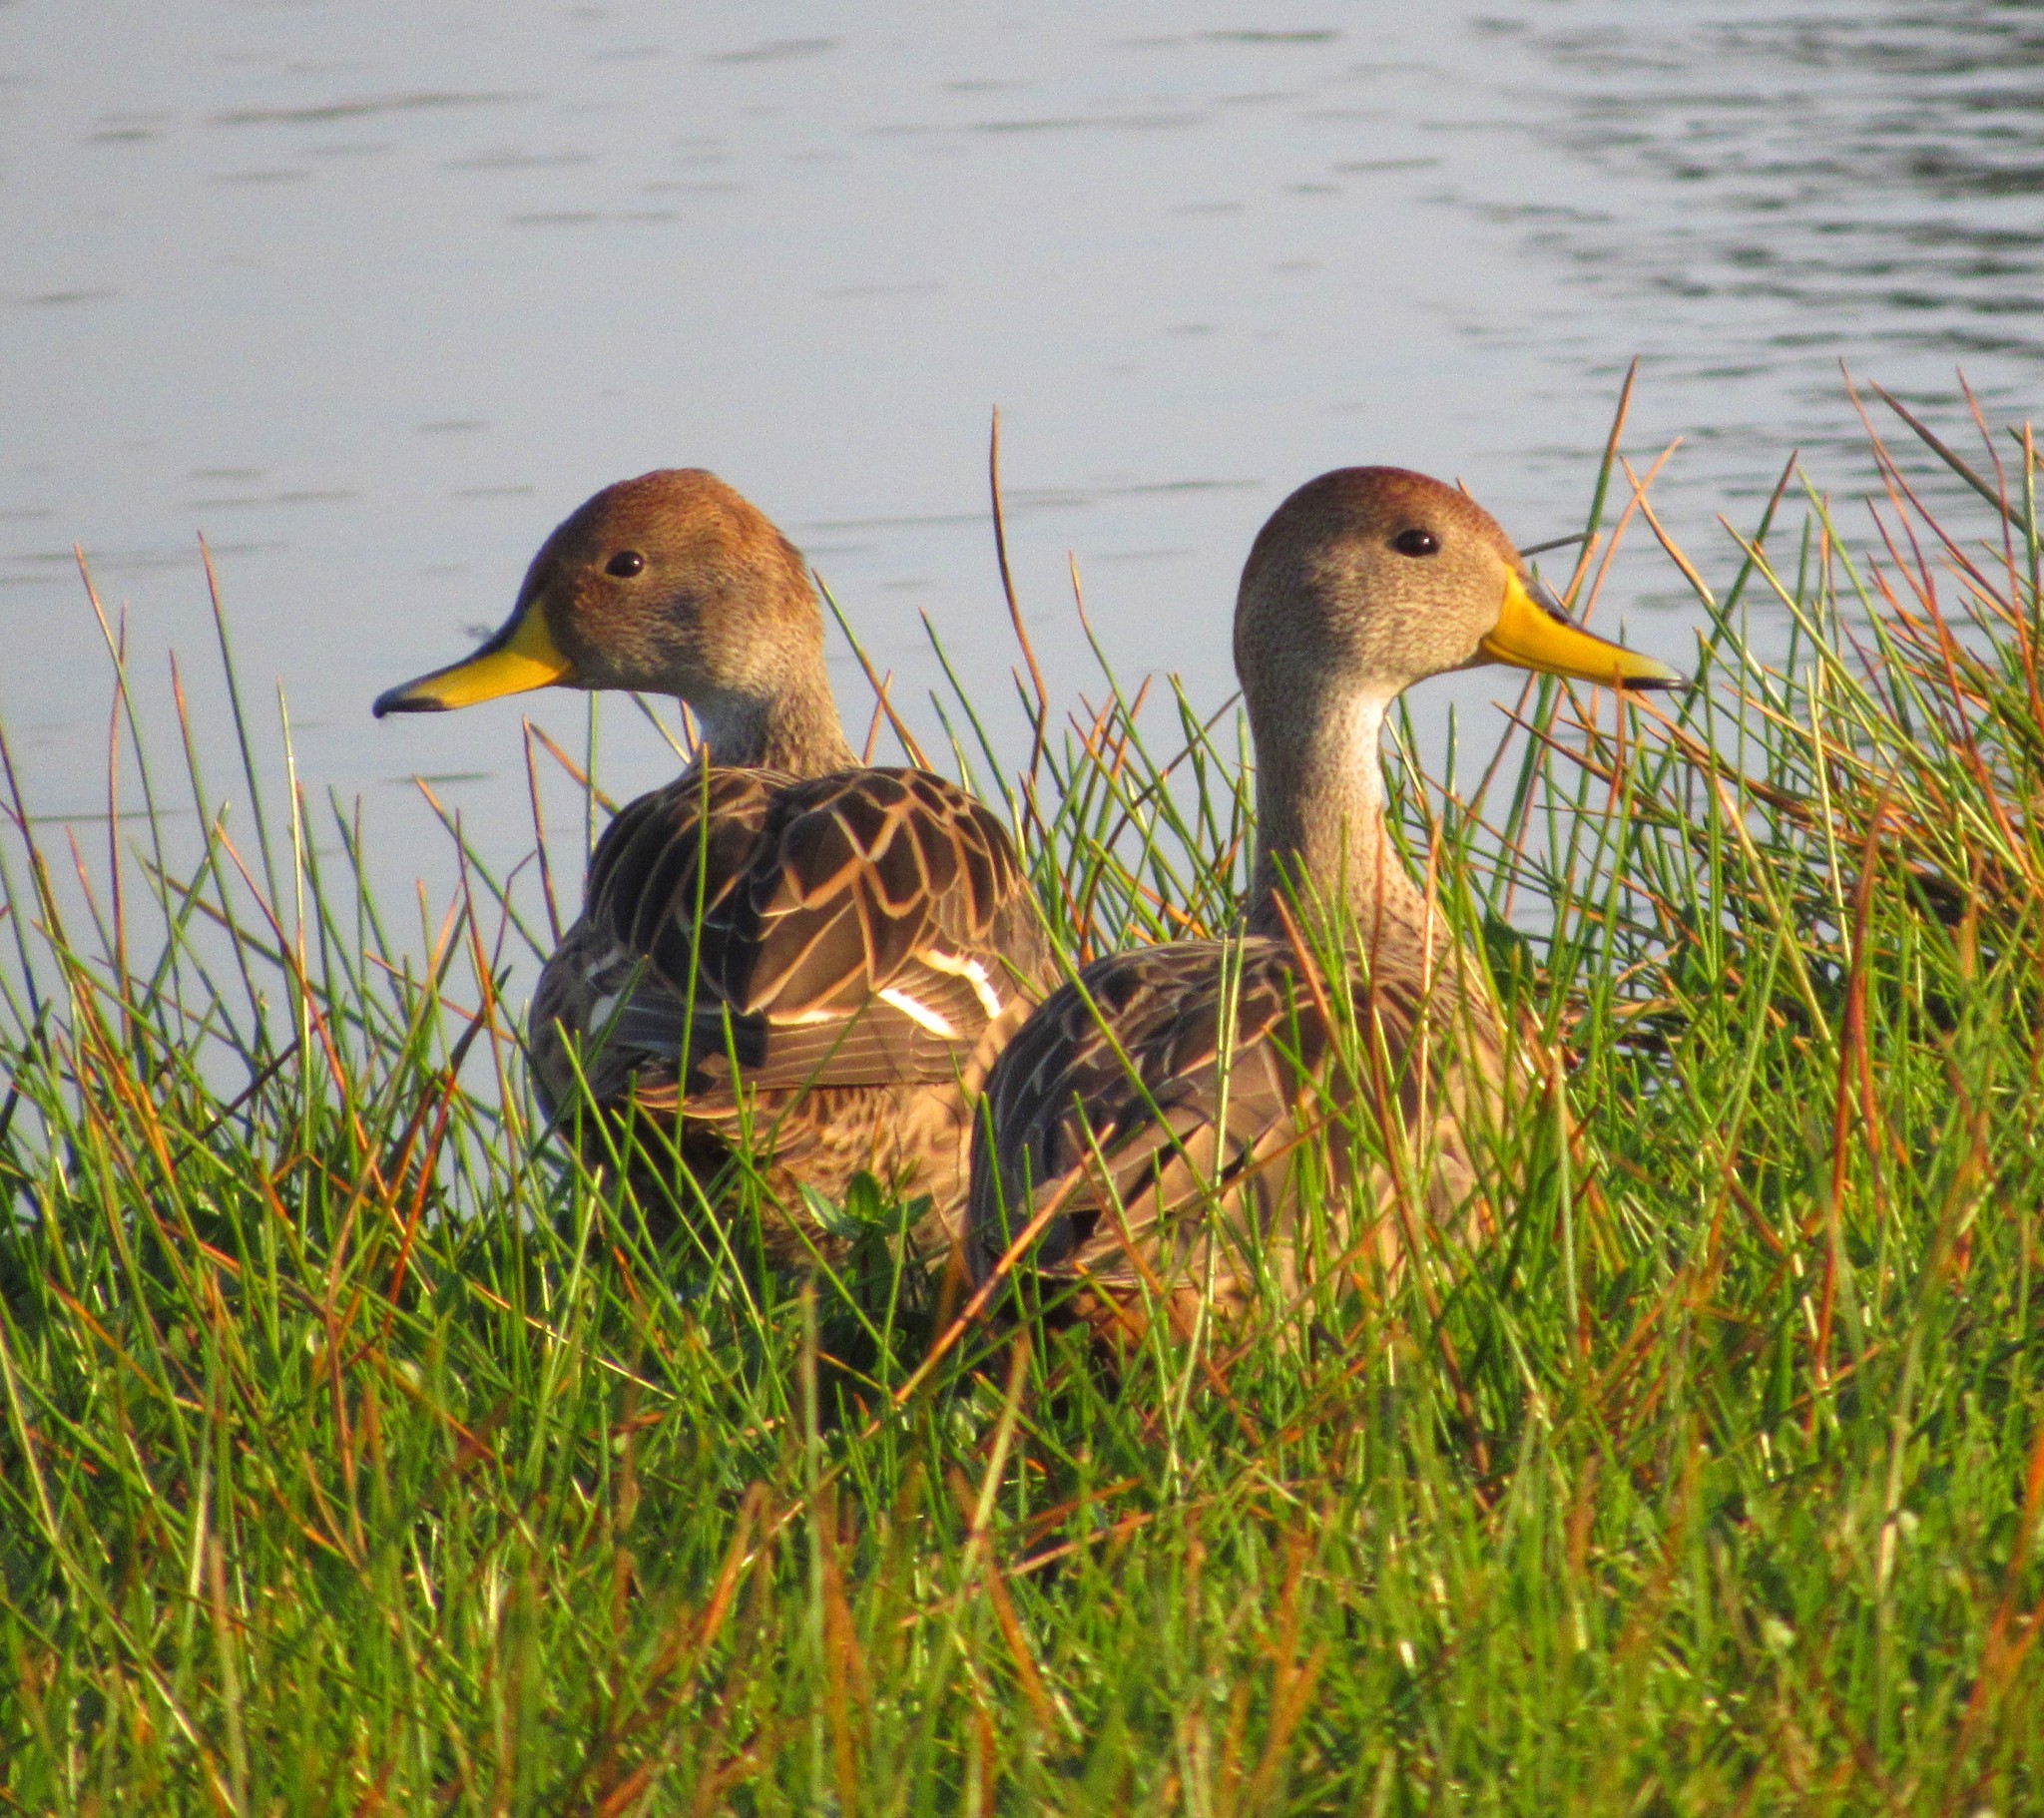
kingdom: Animalia
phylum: Chordata
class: Aves
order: Anseriformes
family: Anatidae
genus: Anas
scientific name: Anas georgica
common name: Yellow-billed pintail
